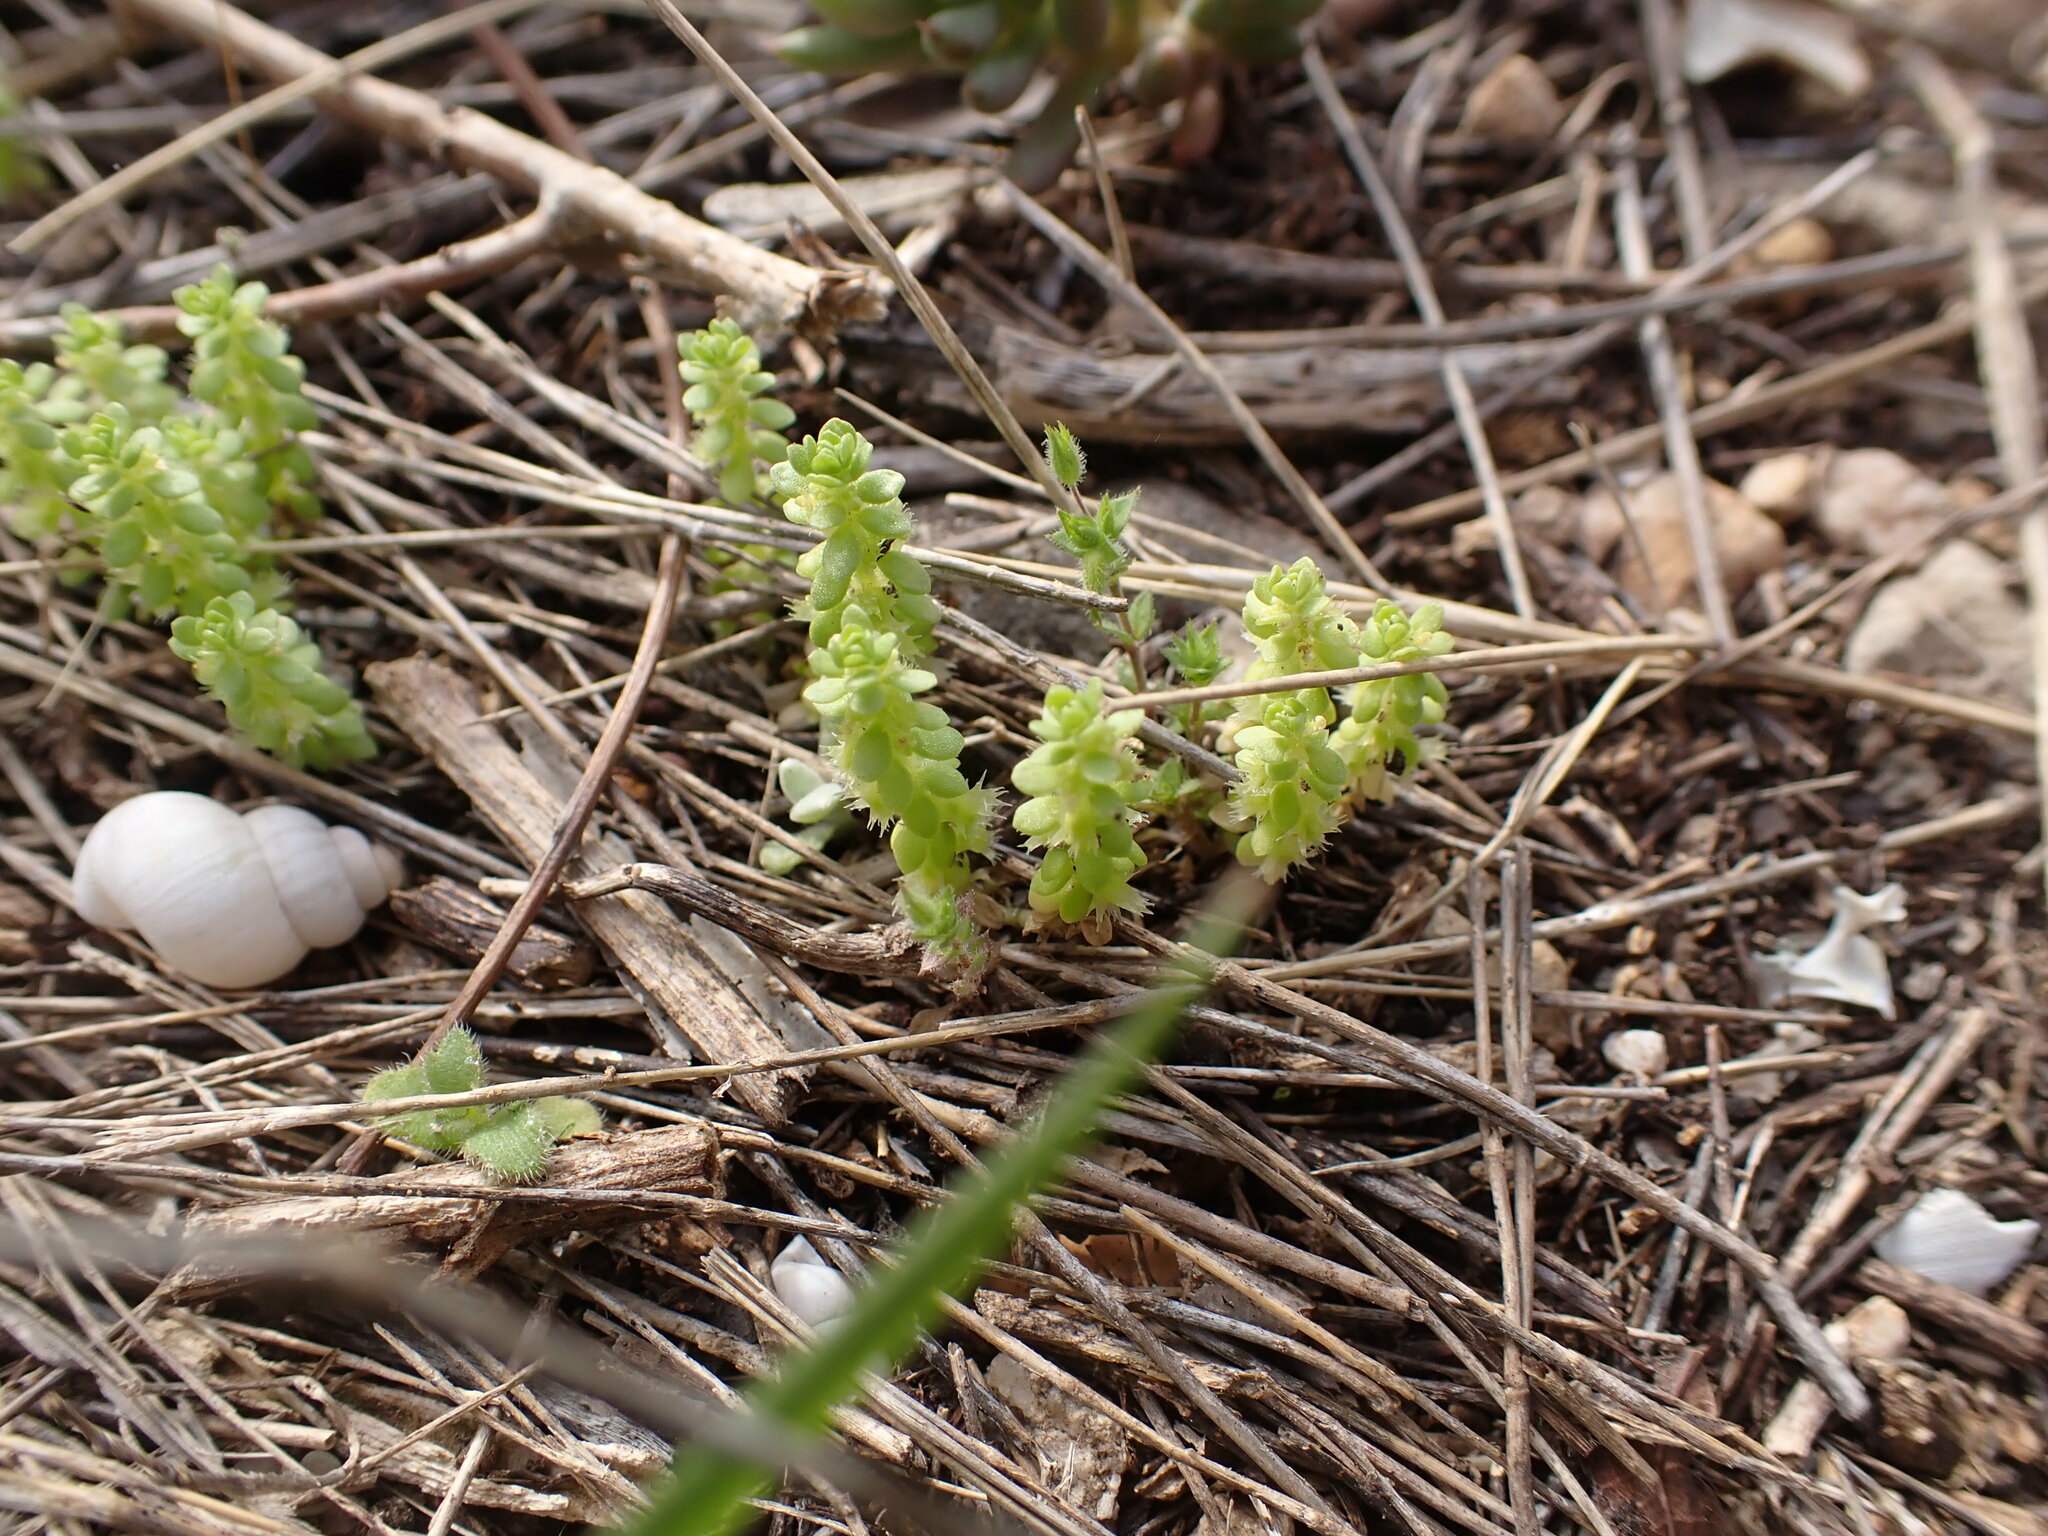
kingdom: Plantae
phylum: Tracheophyta
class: Magnoliopsida
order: Gentianales
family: Rubiaceae
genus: Valantia
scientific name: Valantia muralis
